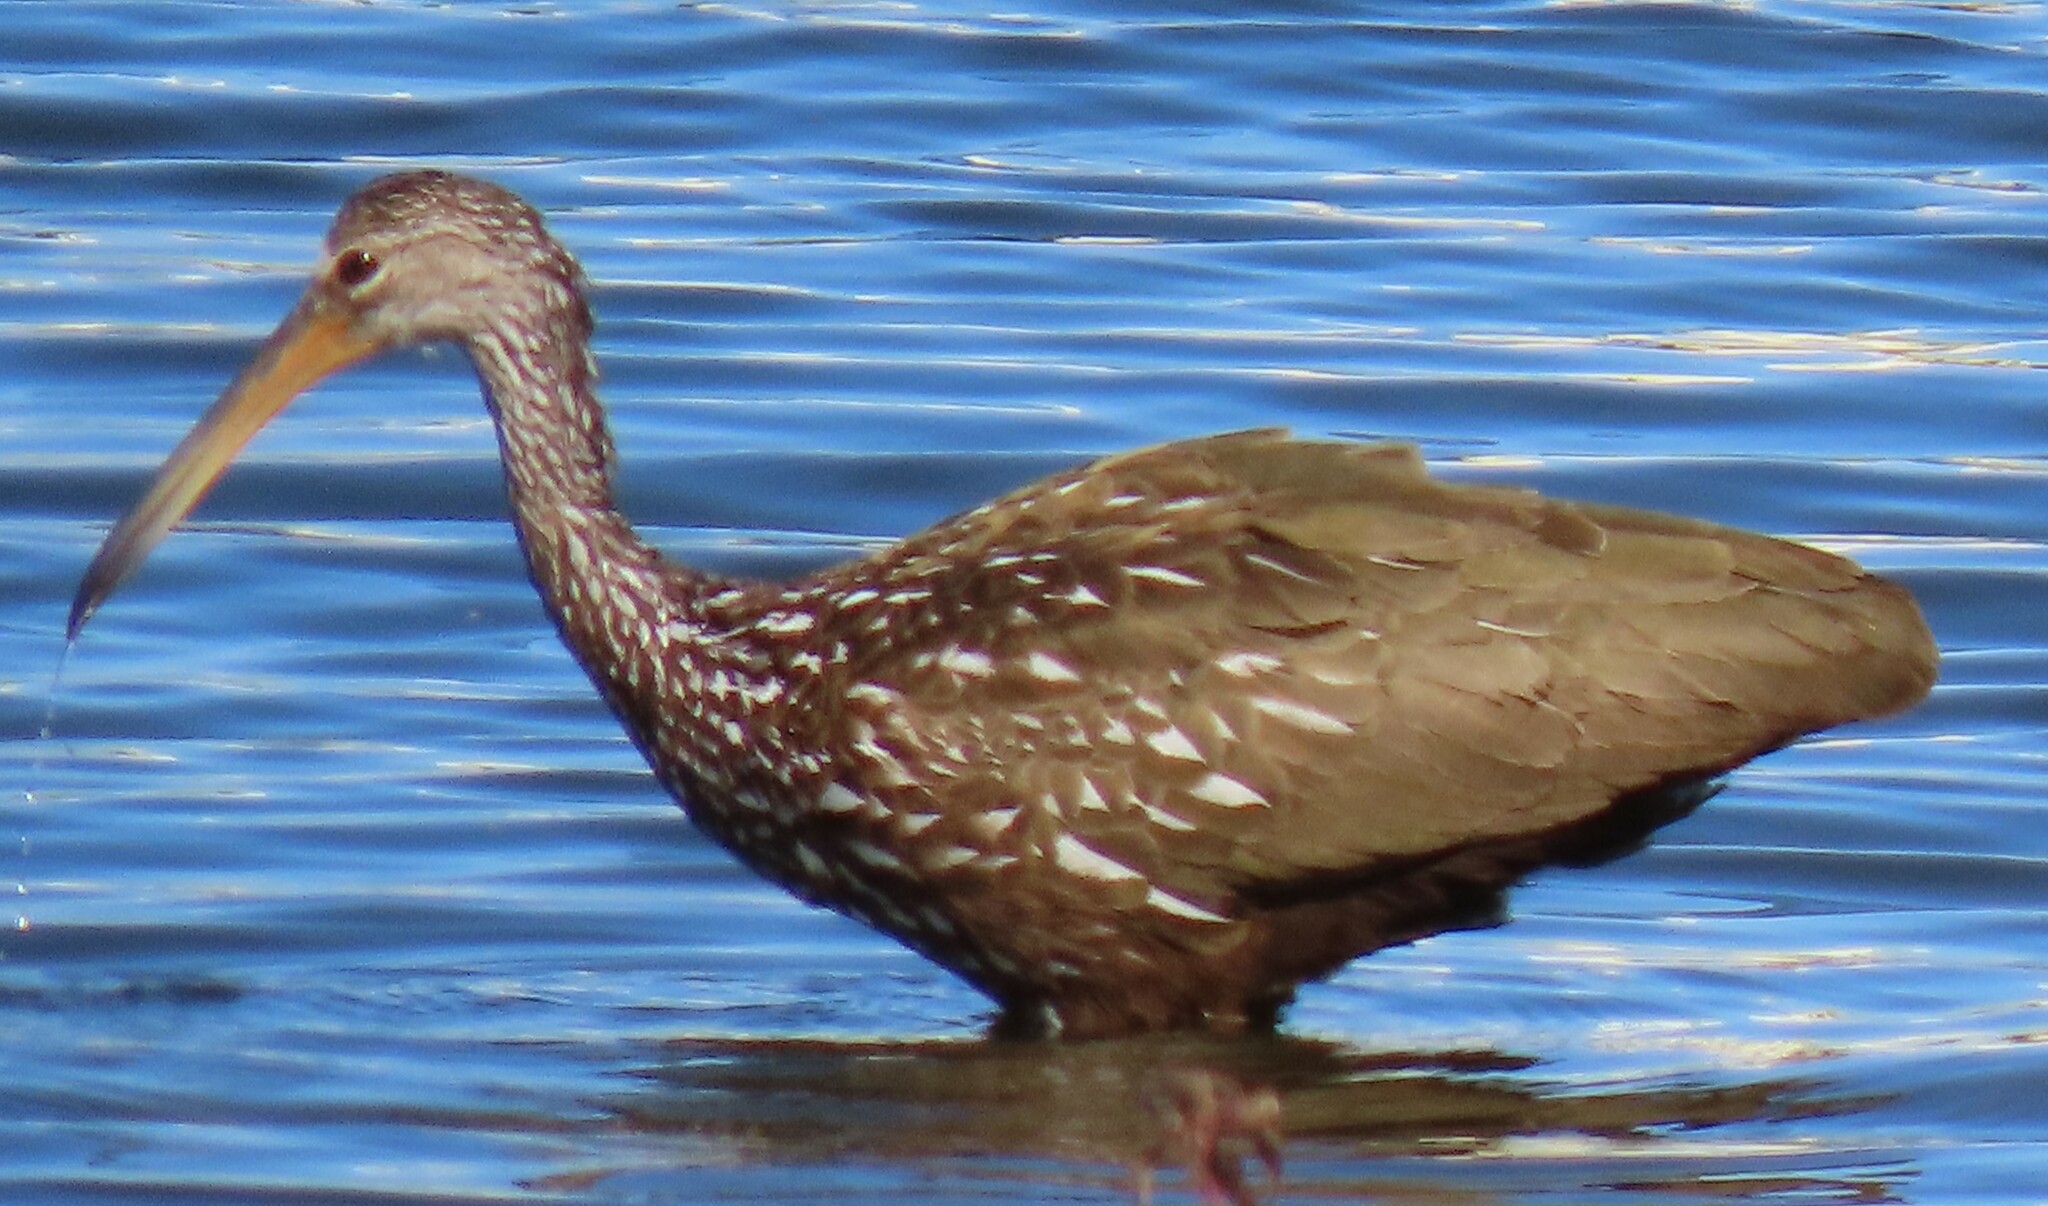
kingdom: Animalia
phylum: Chordata
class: Aves
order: Gruiformes
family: Aramidae
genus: Aramus
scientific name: Aramus guarauna
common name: Limpkin
